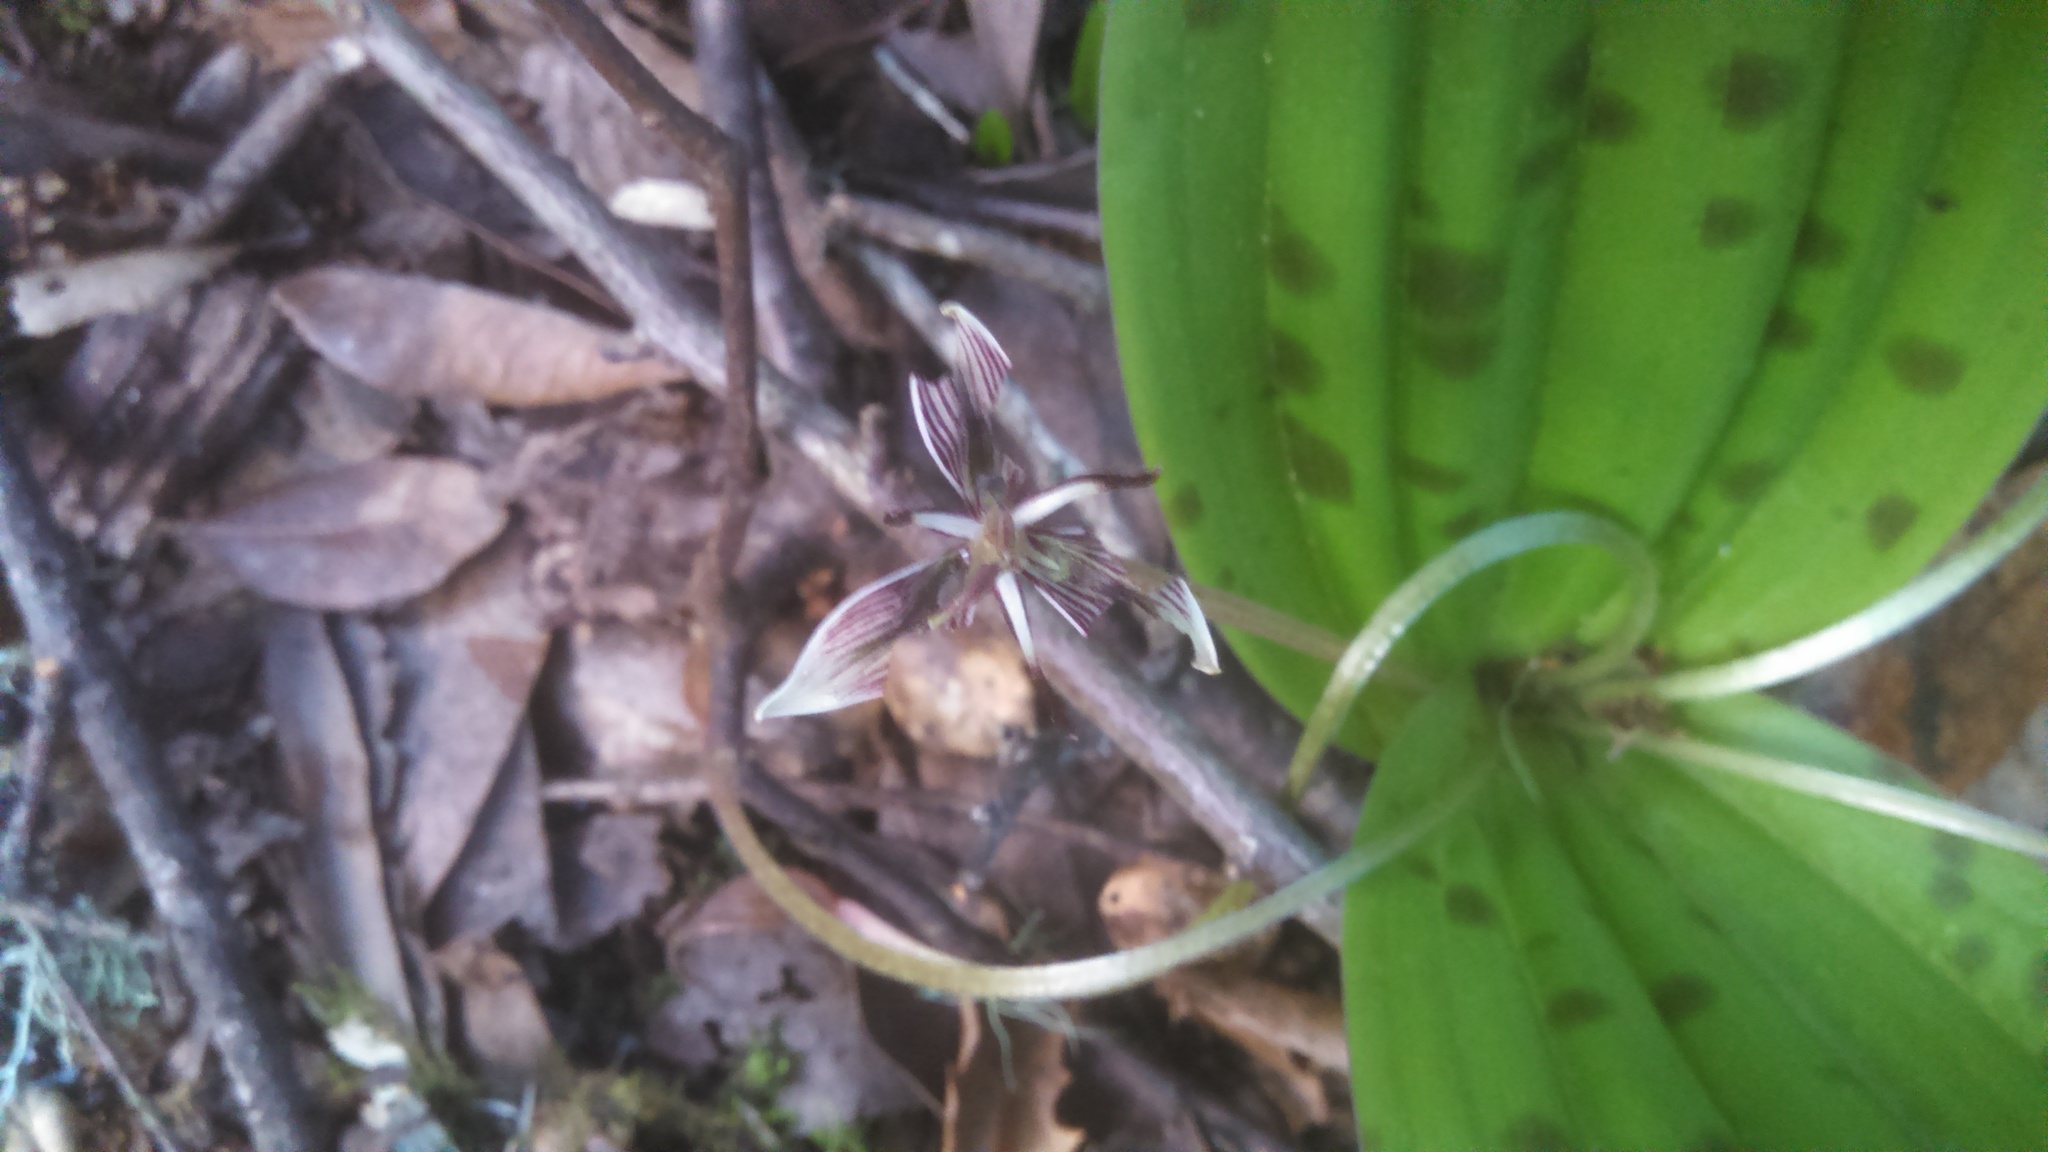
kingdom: Plantae
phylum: Tracheophyta
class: Liliopsida
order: Liliales
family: Liliaceae
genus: Scoliopus
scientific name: Scoliopus bigelovii
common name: Foetid adder's-tongue
